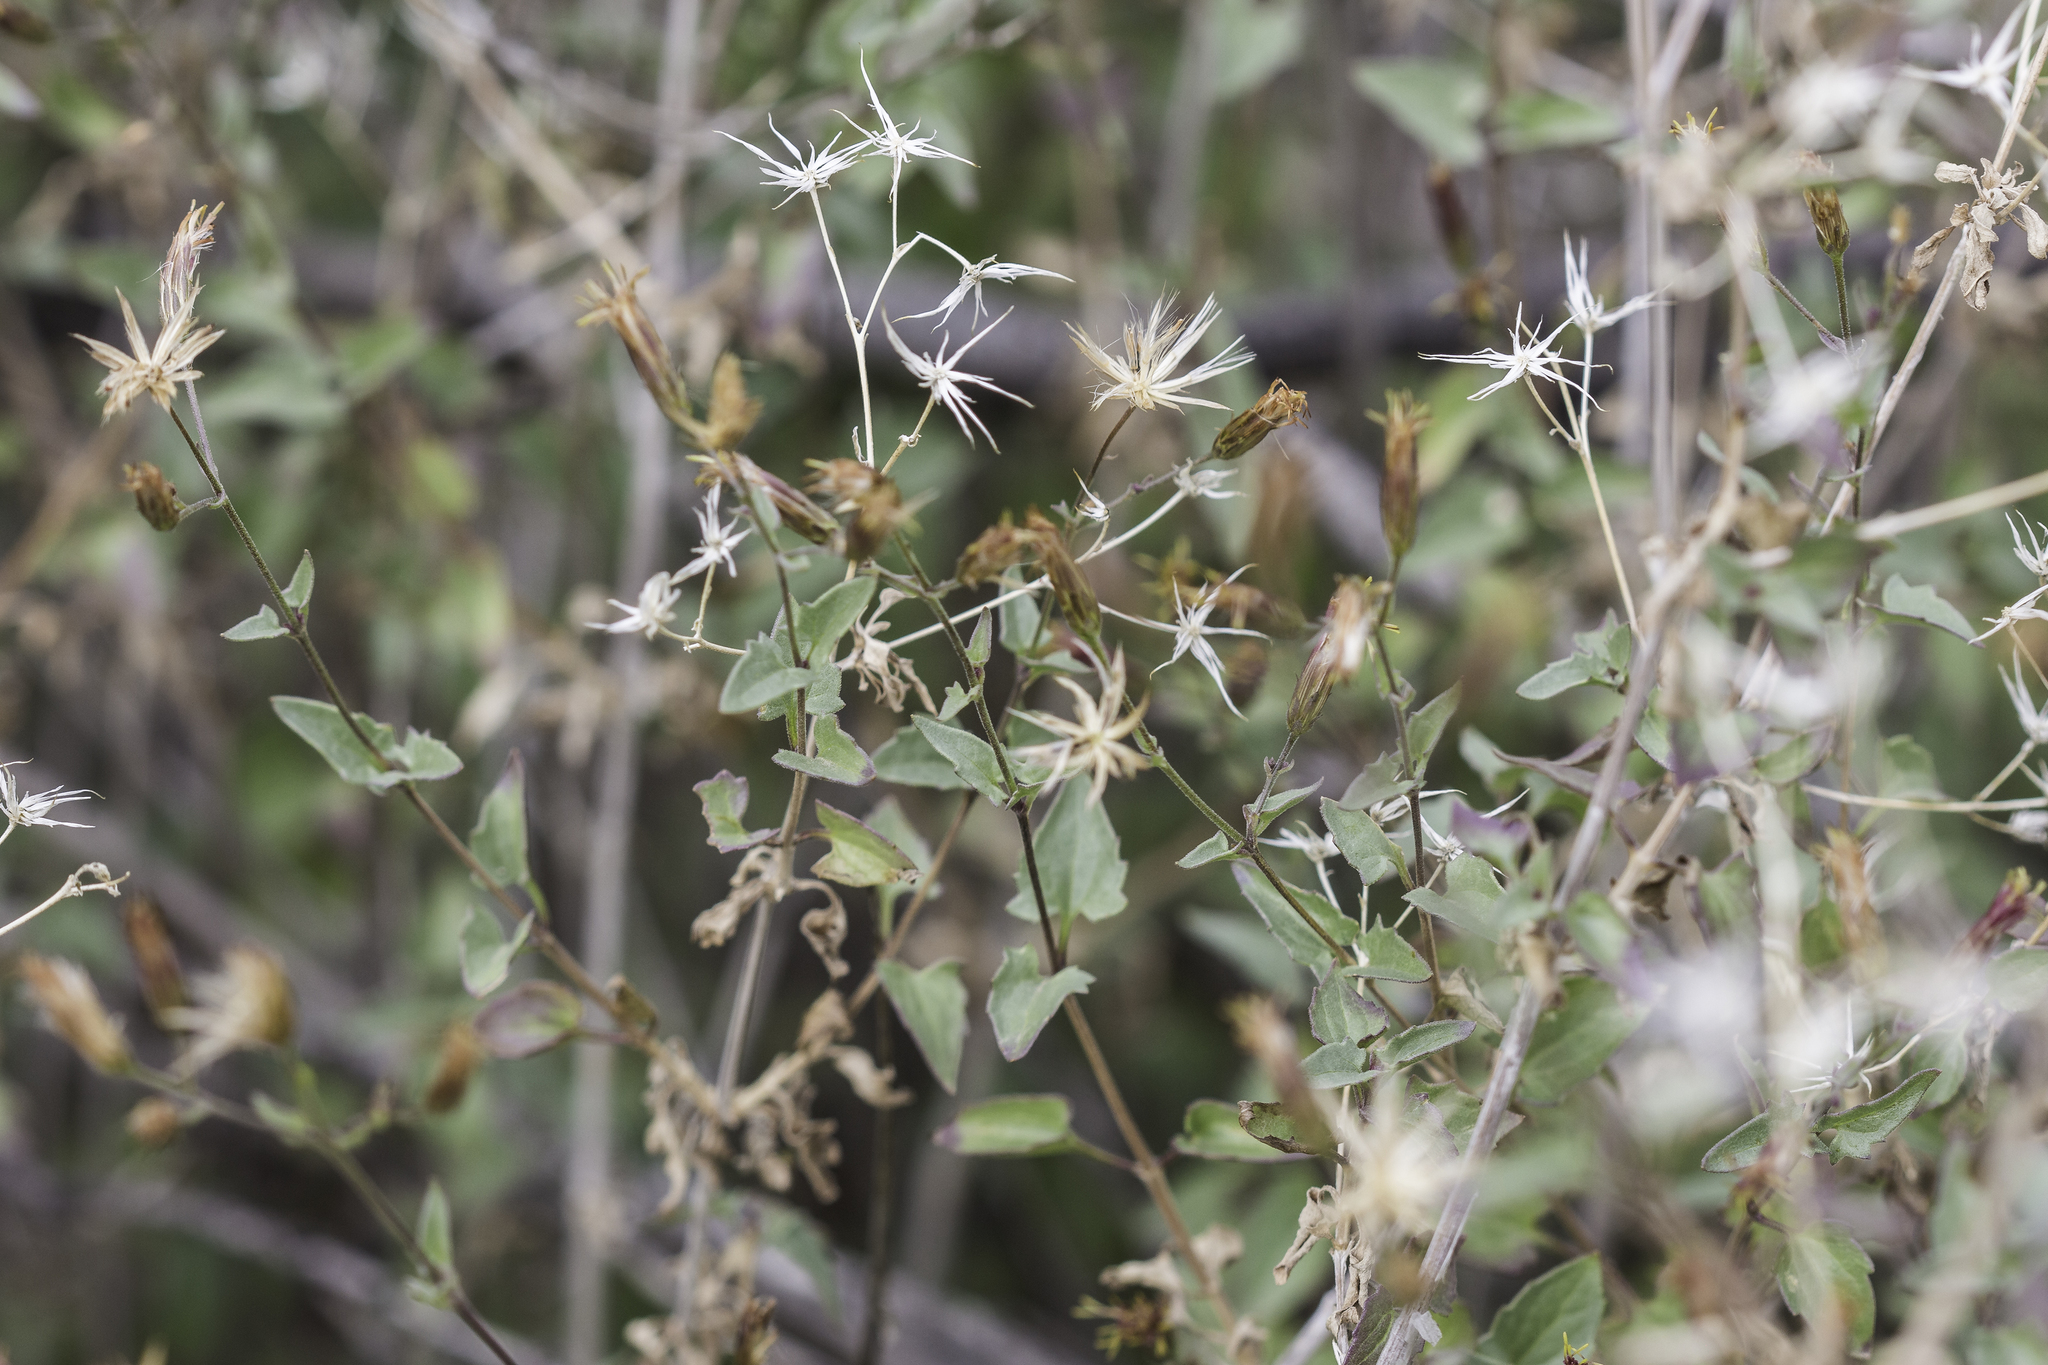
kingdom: Plantae
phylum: Tracheophyta
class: Magnoliopsida
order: Asterales
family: Asteraceae
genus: Brickellia
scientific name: Brickellia coulteri
